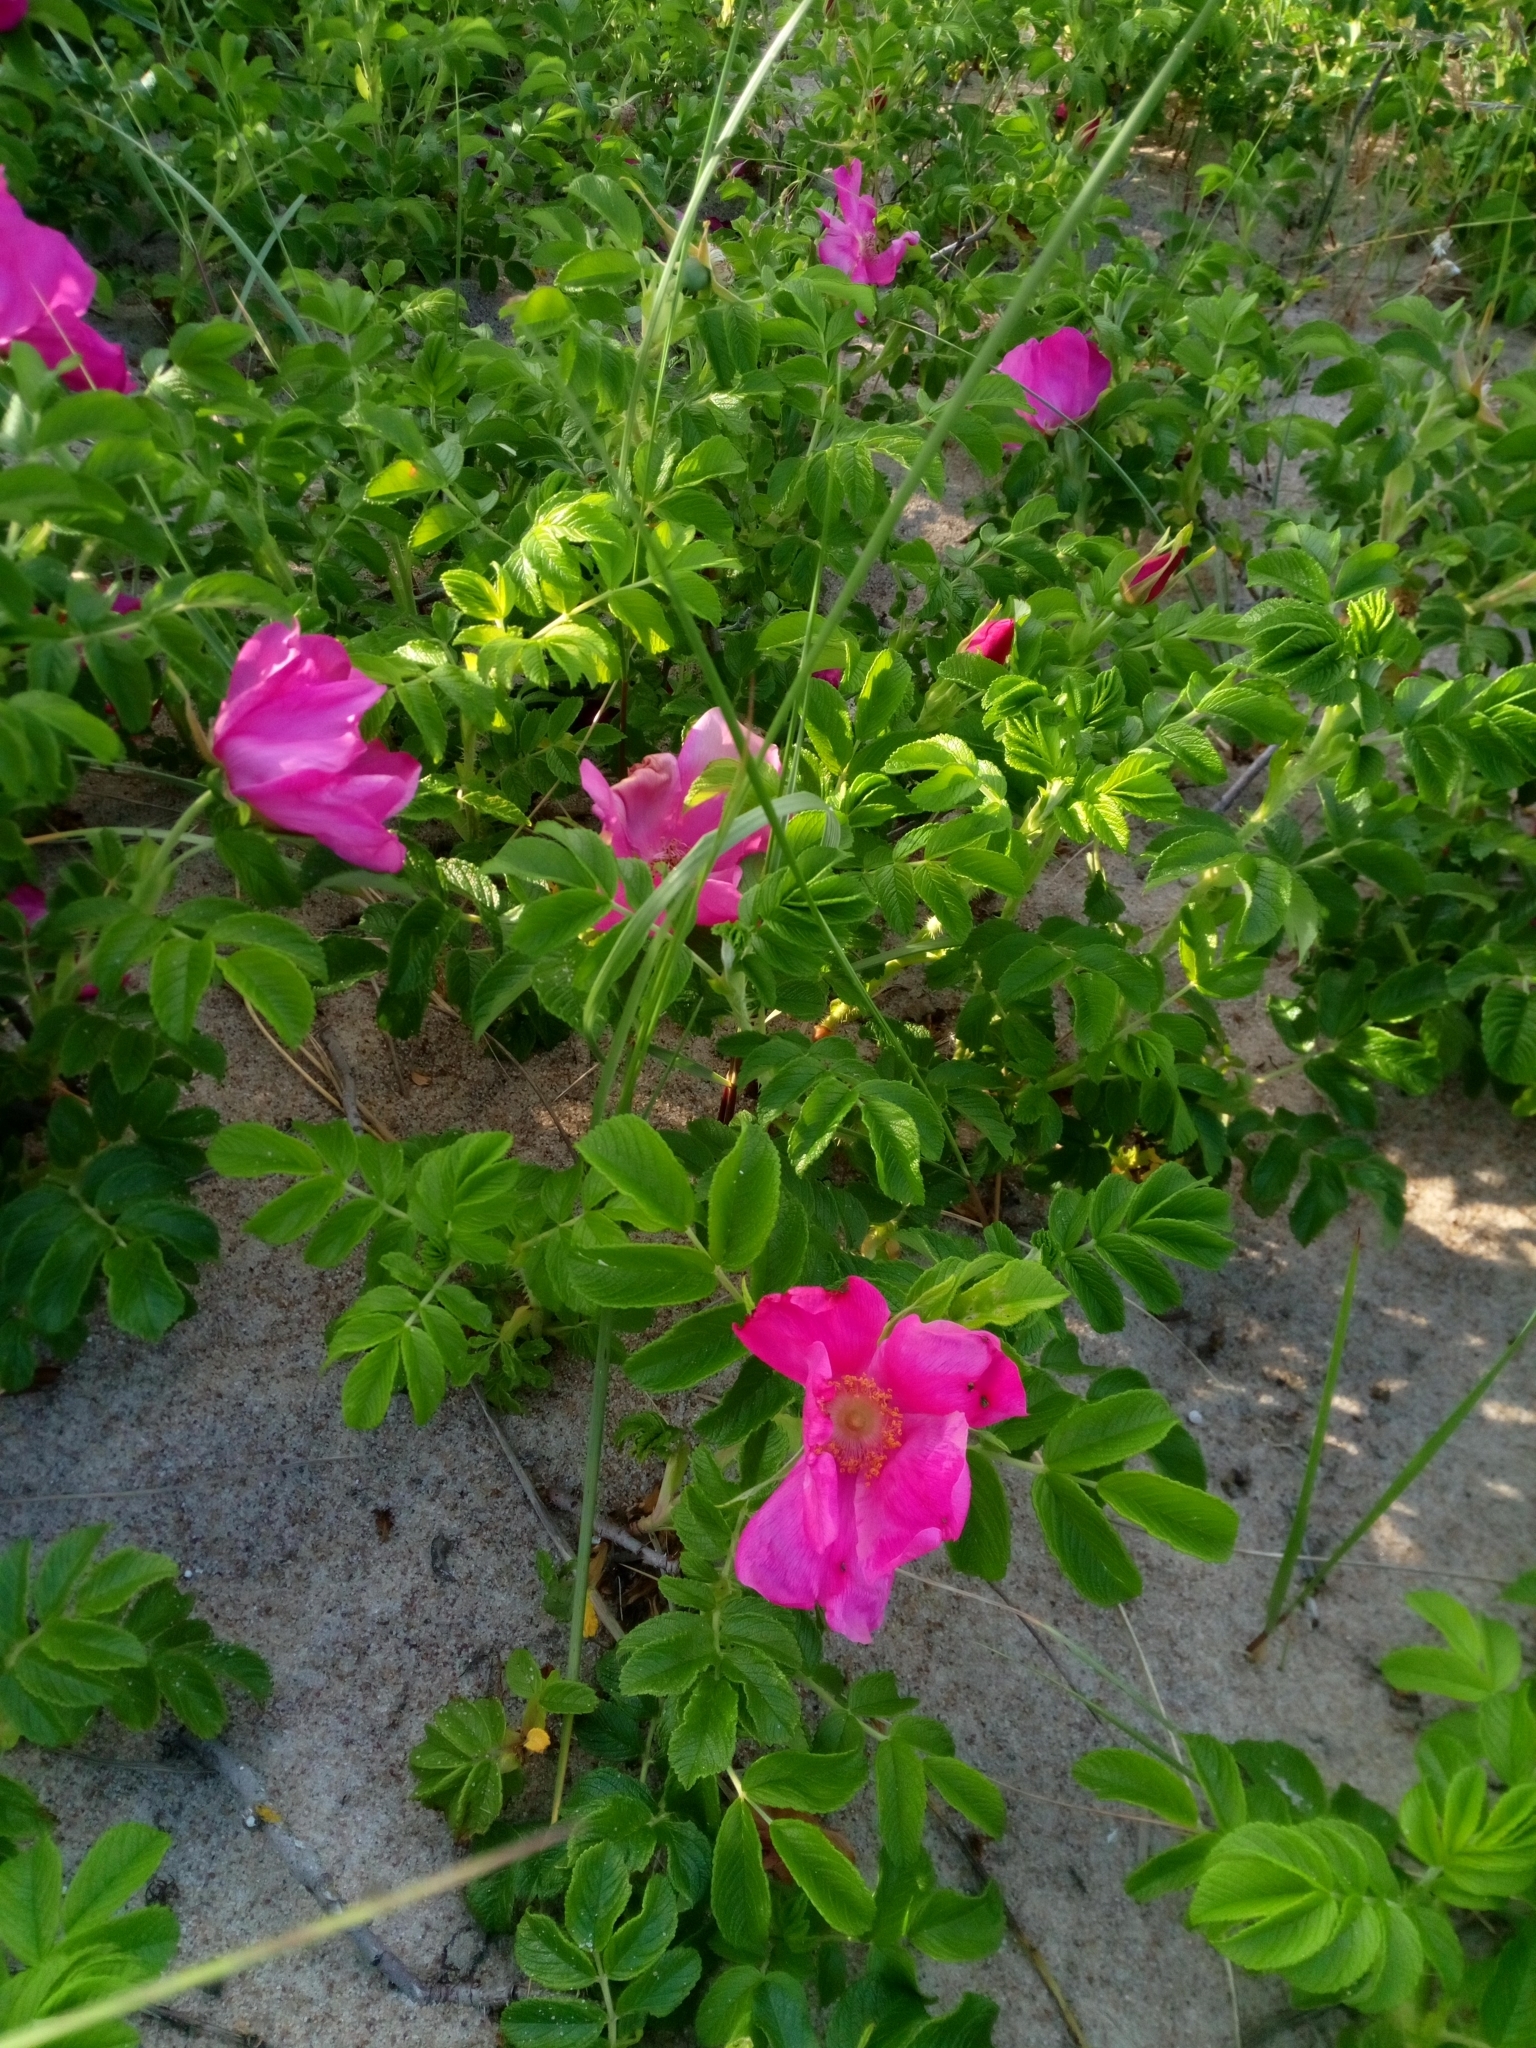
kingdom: Plantae
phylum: Tracheophyta
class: Magnoliopsida
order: Rosales
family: Rosaceae
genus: Rosa
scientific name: Rosa rugosa
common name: Japanese rose
